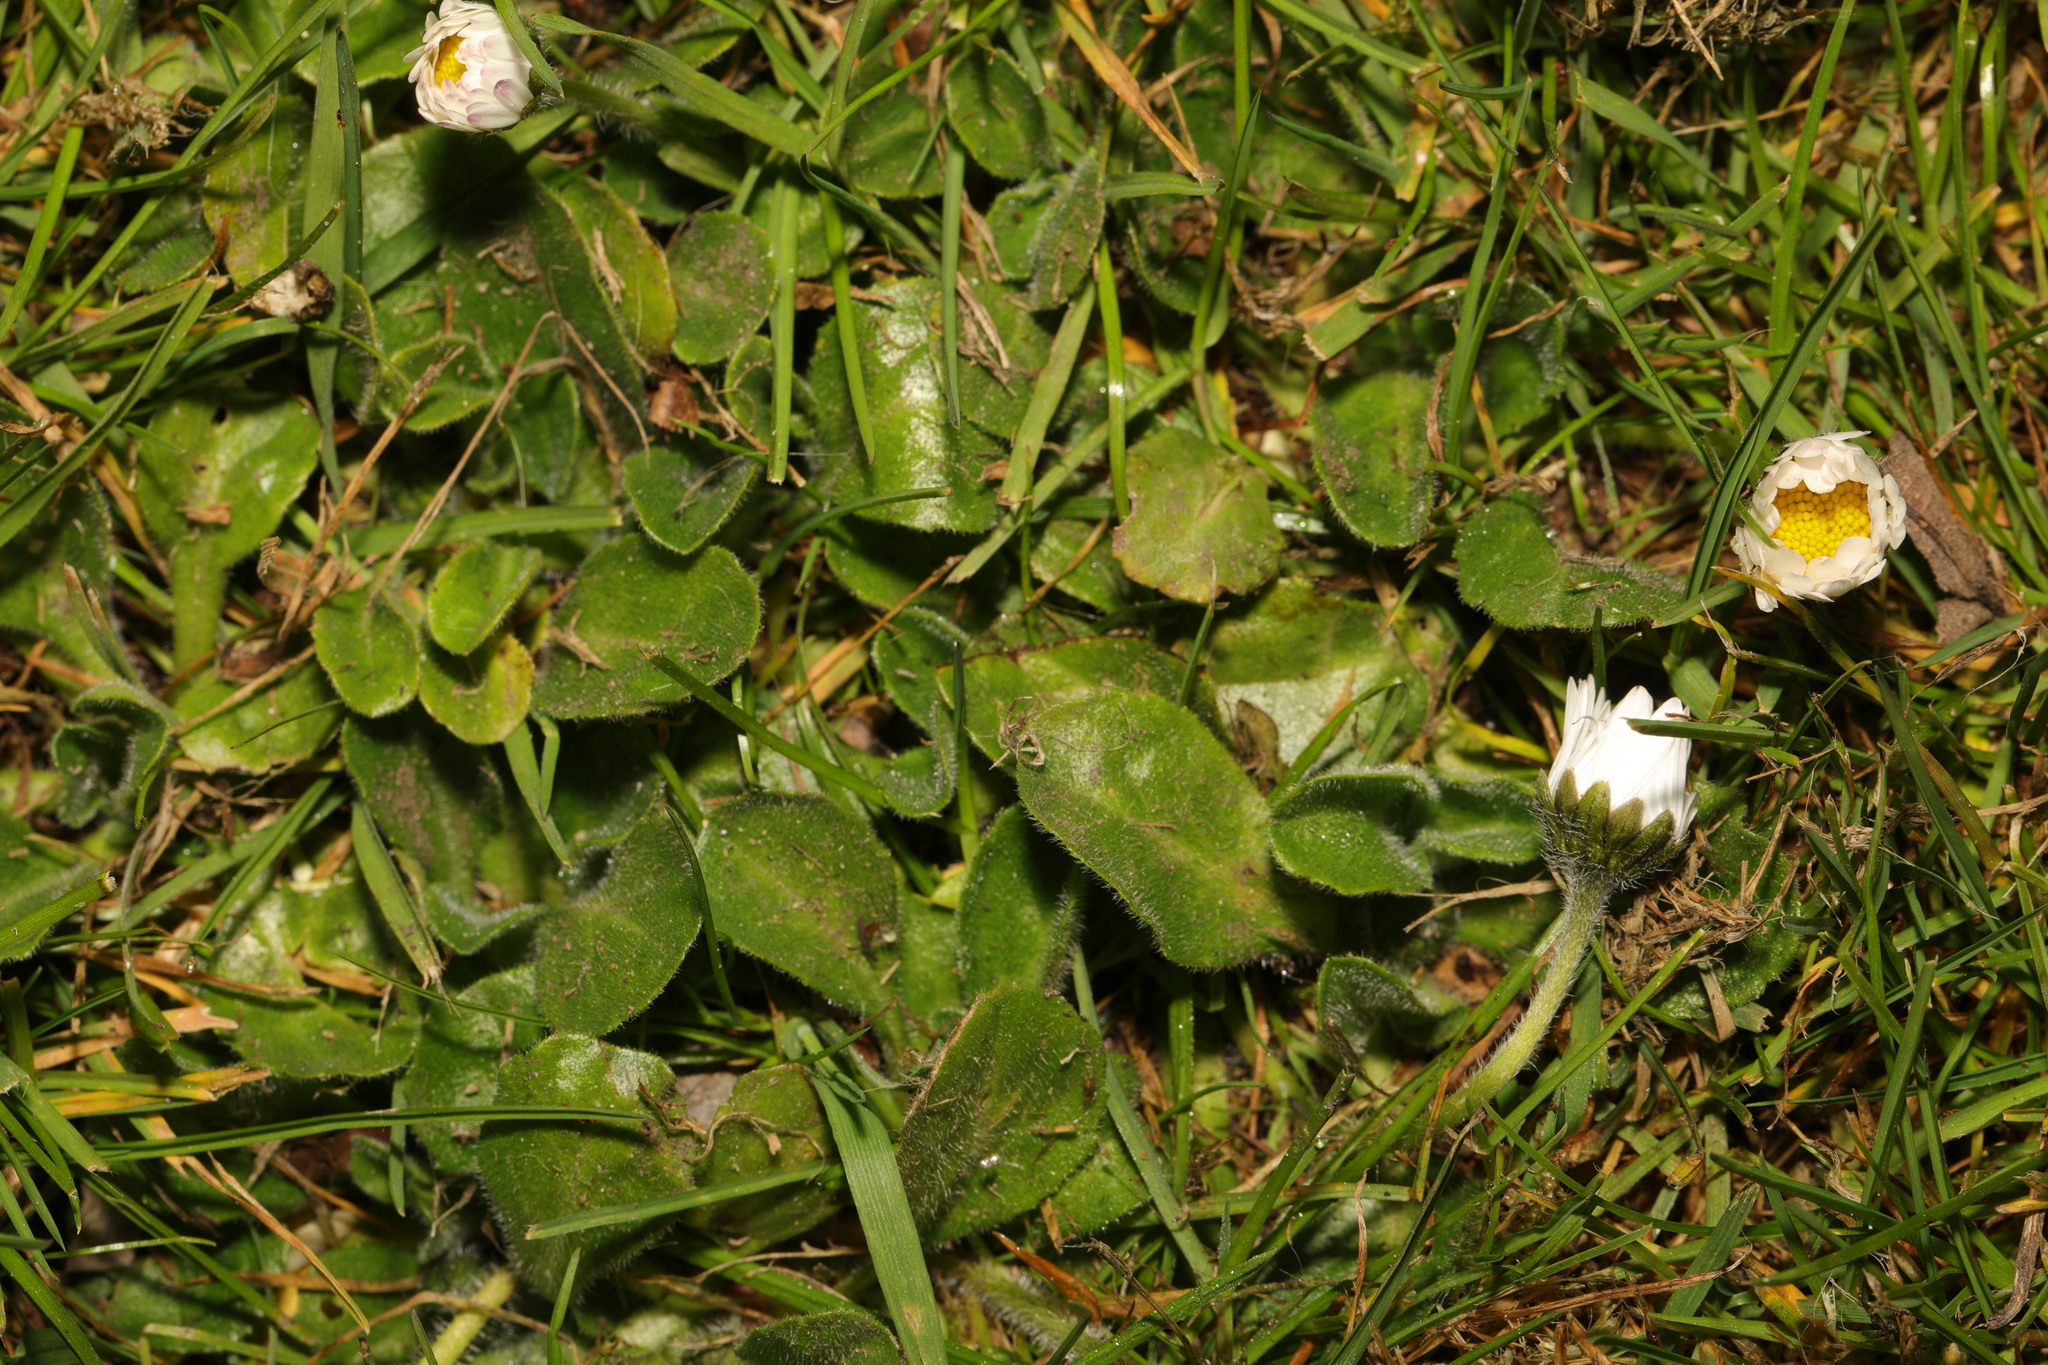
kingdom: Plantae
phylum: Tracheophyta
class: Magnoliopsida
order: Asterales
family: Asteraceae
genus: Bellis
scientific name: Bellis perennis
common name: Lawndaisy
